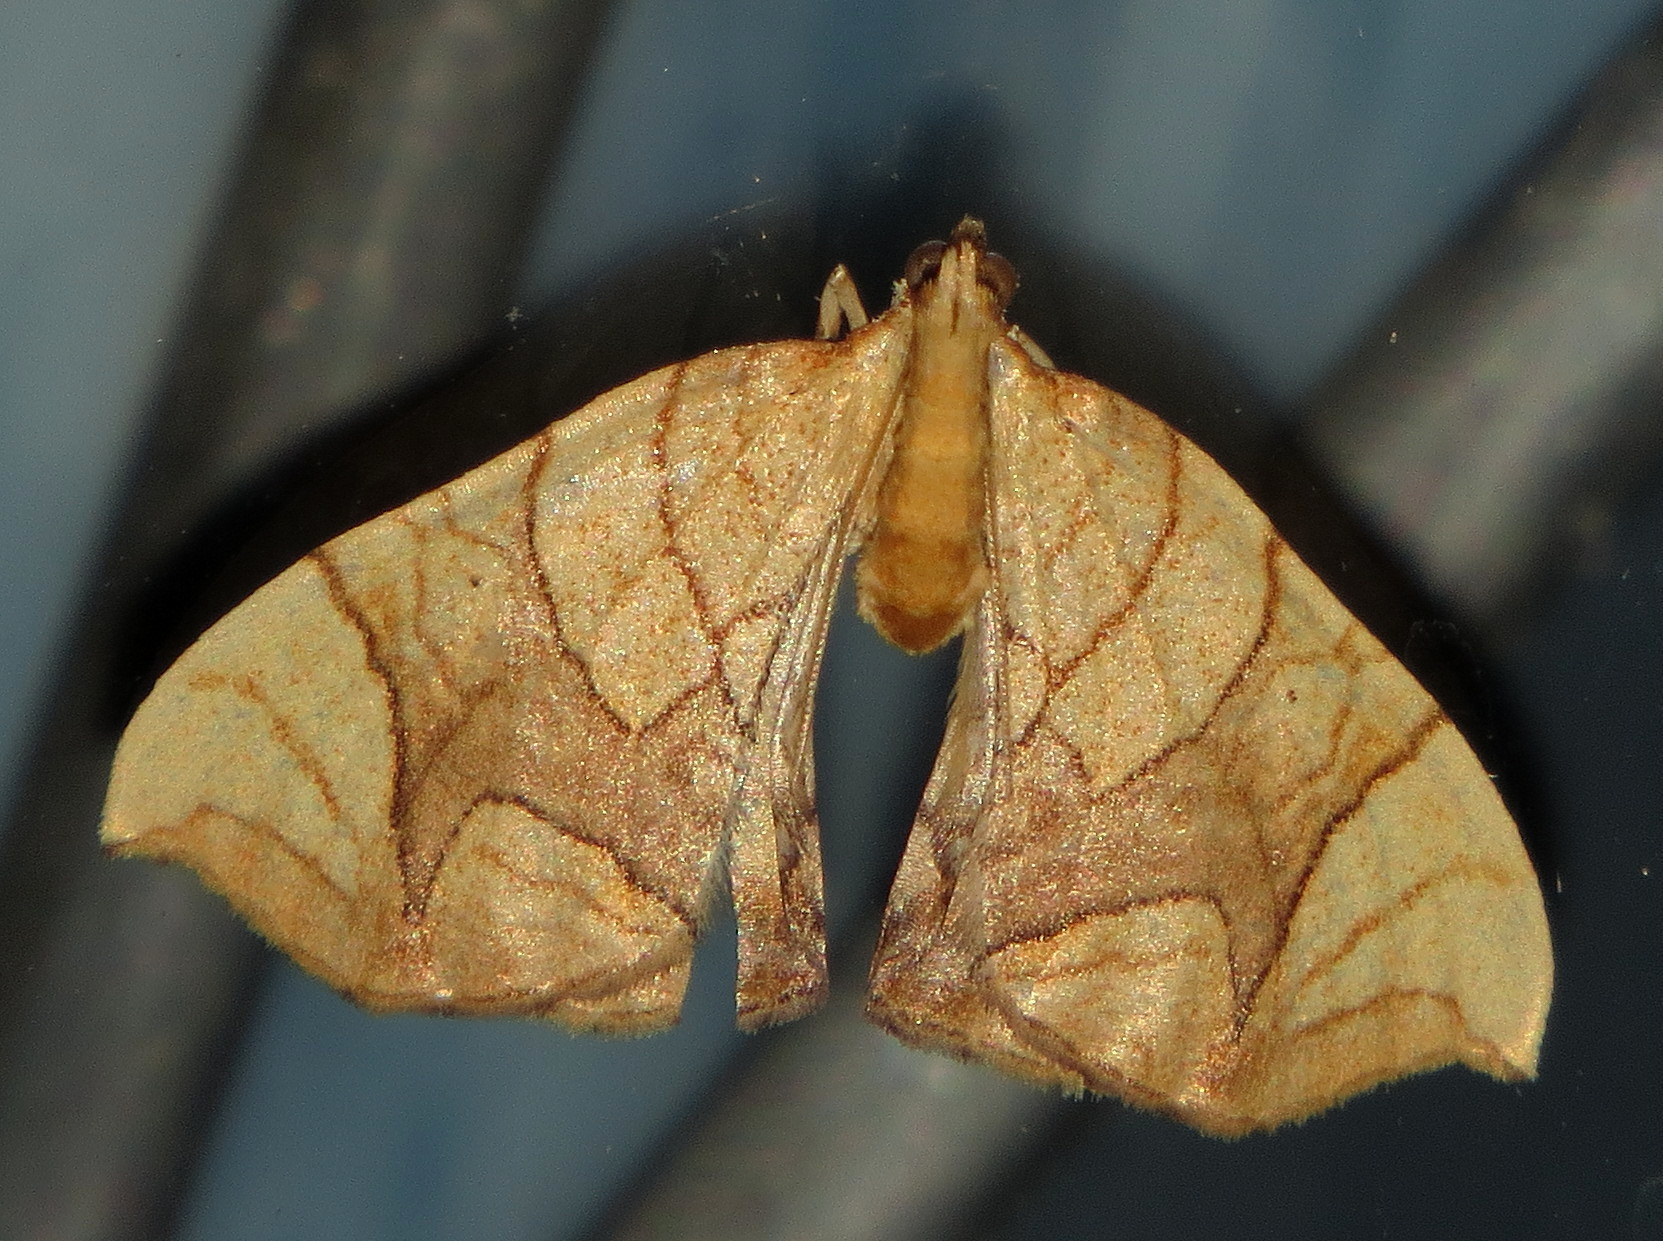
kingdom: Animalia
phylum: Arthropoda
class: Insecta
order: Lepidoptera
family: Geometridae
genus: Eulithis
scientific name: Eulithis
